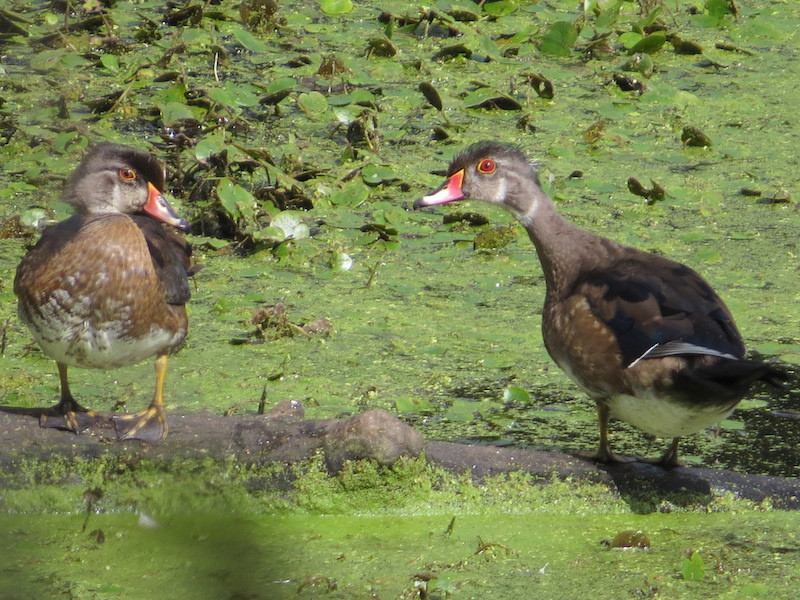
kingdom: Animalia
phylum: Chordata
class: Aves
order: Anseriformes
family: Anatidae
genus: Aix
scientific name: Aix sponsa
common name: Wood duck
